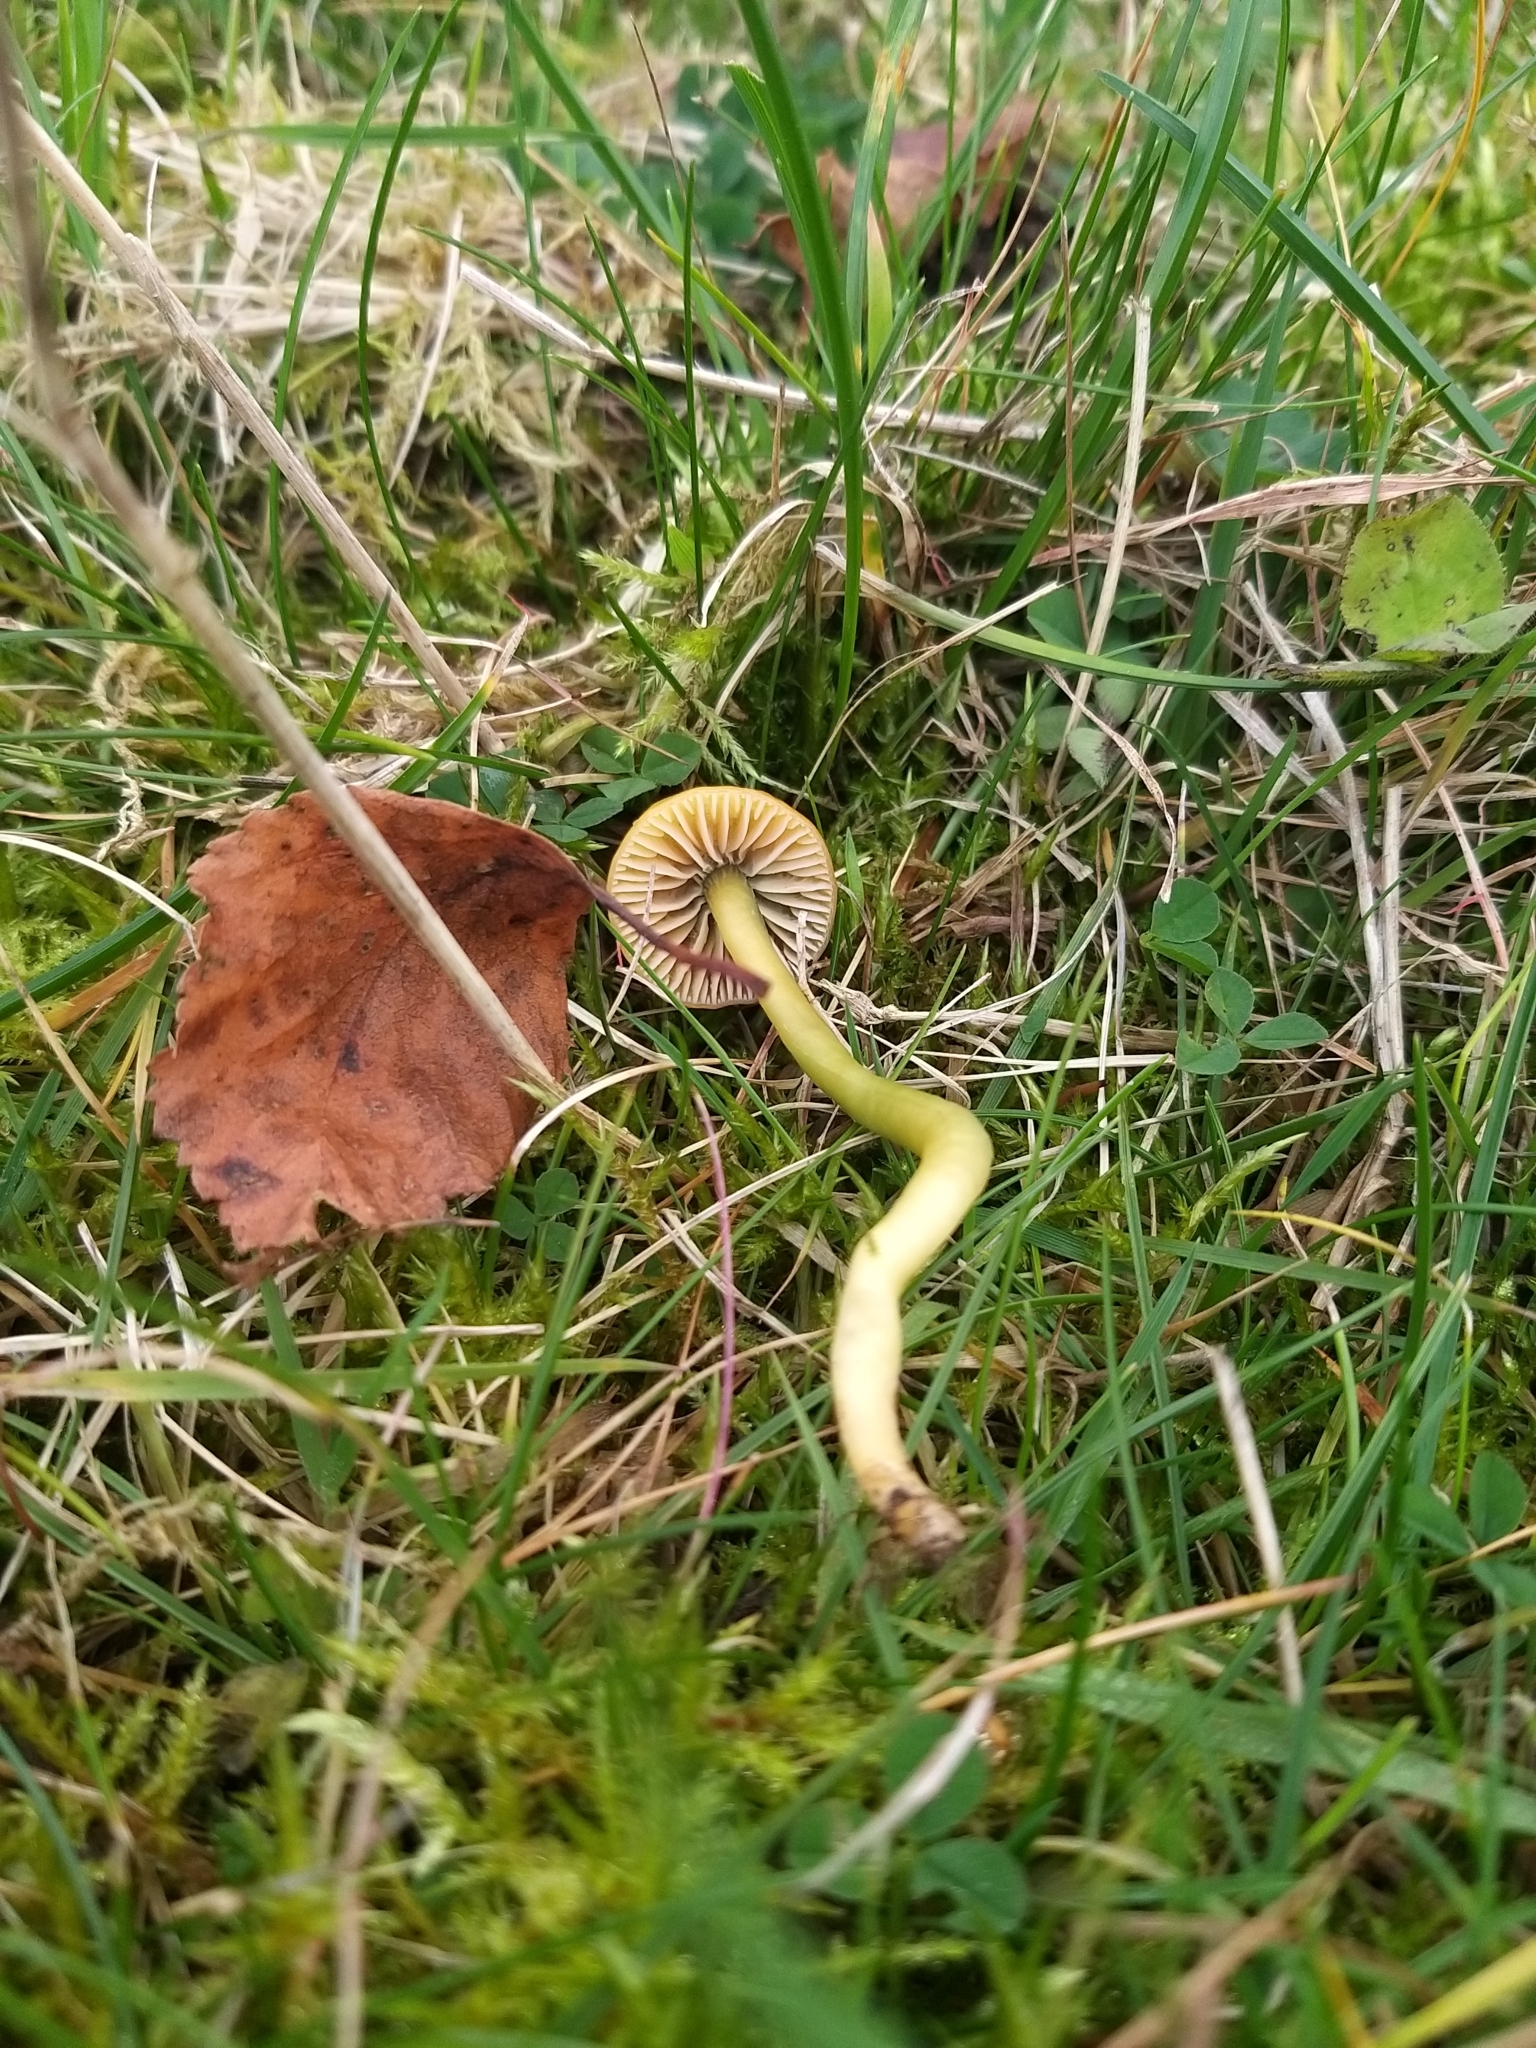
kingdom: Fungi
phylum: Basidiomycota
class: Agaricomycetes
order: Agaricales
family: Hygrophoraceae
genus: Gliophorus
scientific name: Gliophorus psittacinus
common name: Parrot wax-cap
